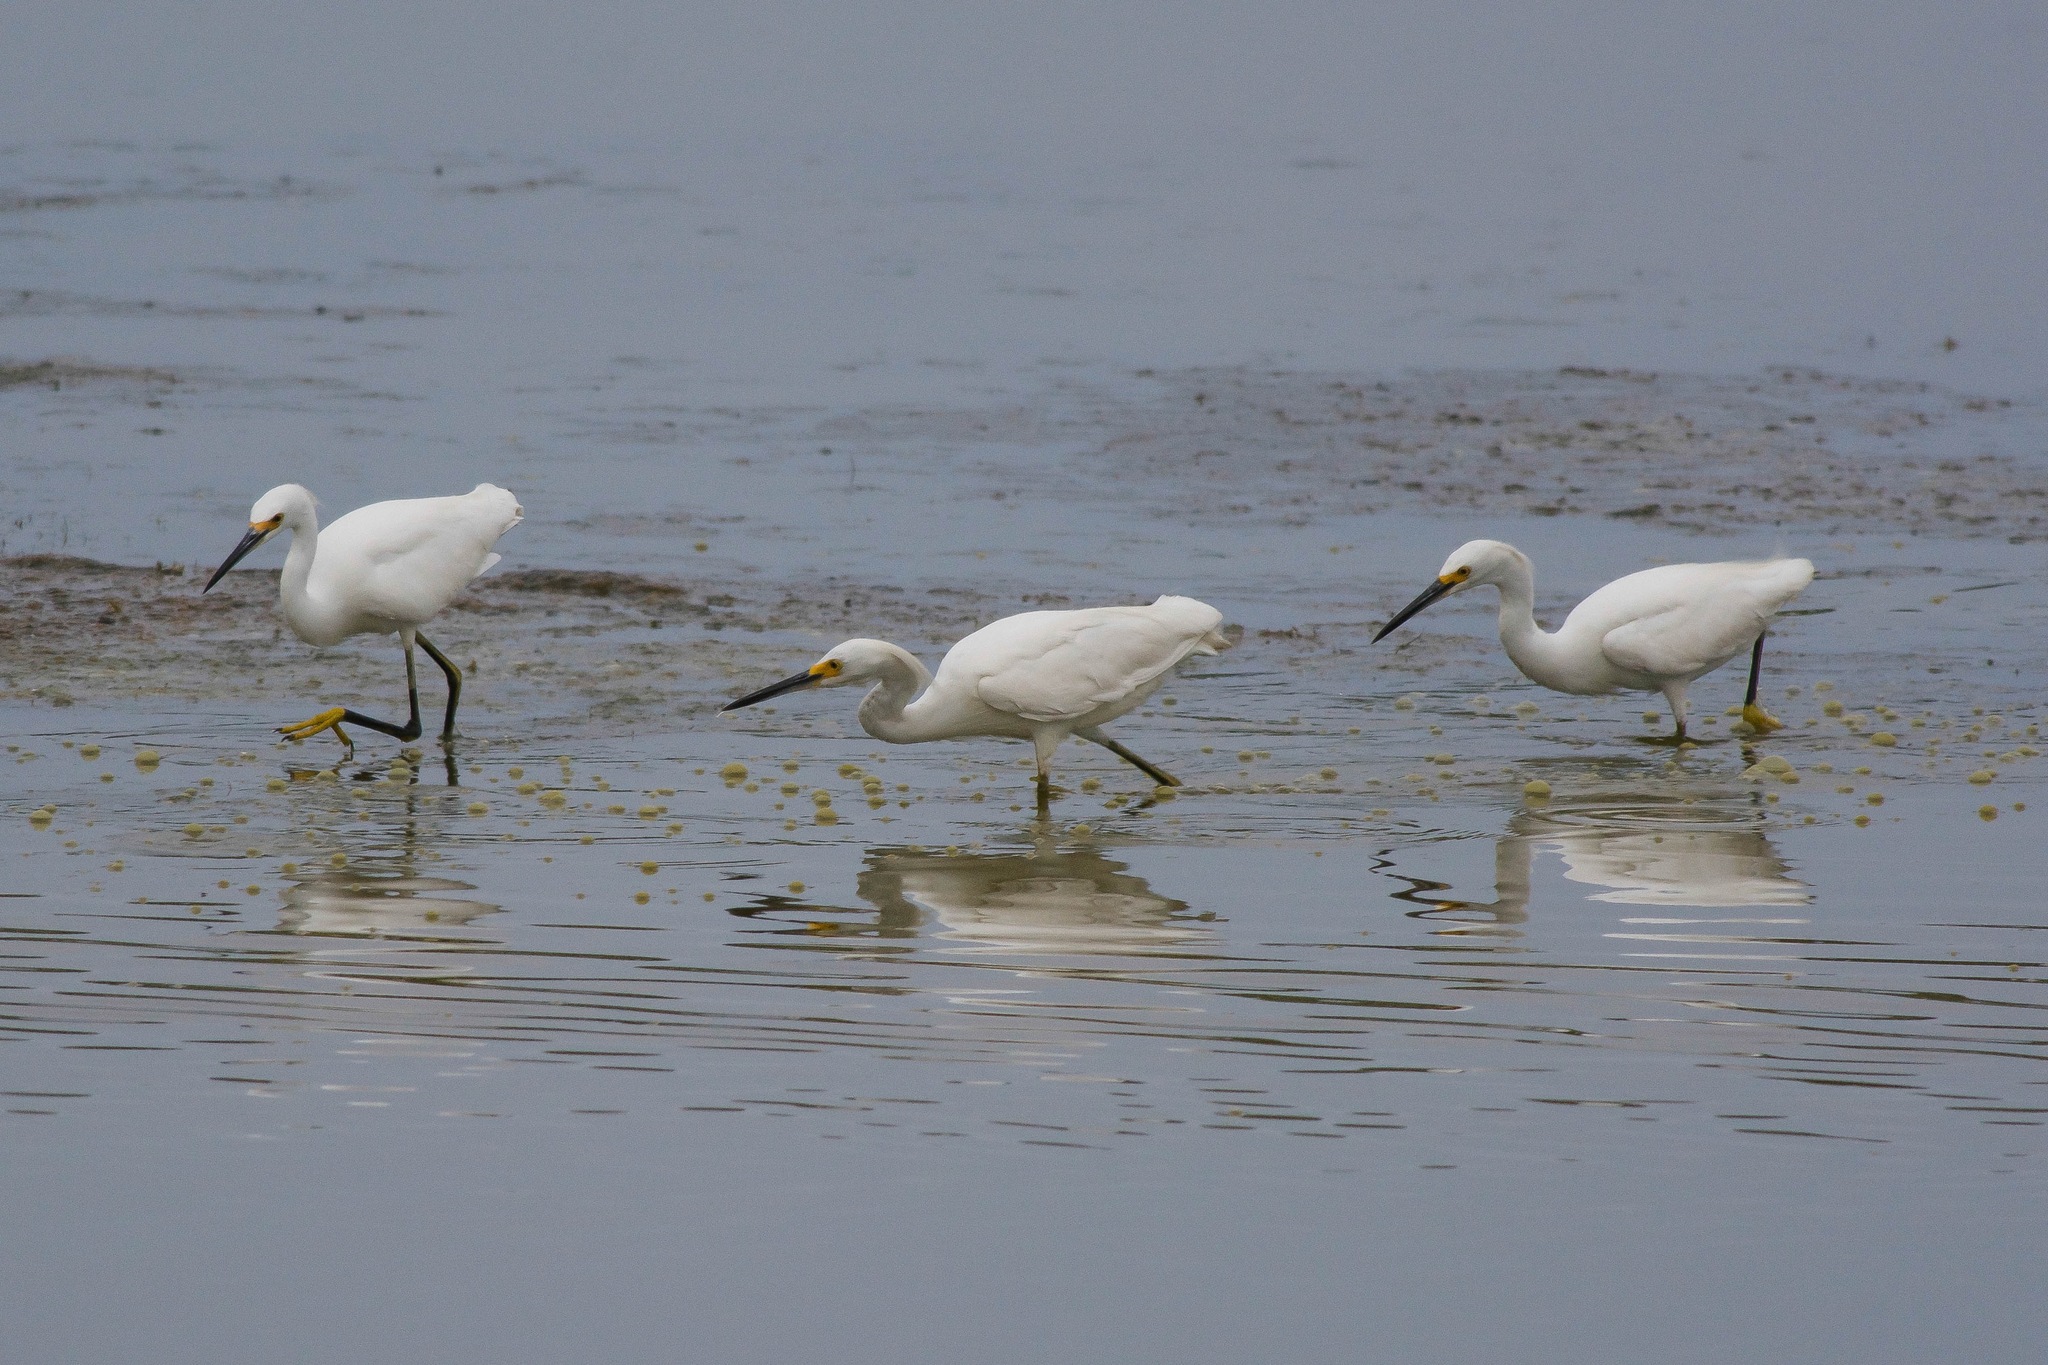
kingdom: Animalia
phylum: Chordata
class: Aves
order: Pelecaniformes
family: Ardeidae
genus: Egretta
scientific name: Egretta thula
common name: Snowy egret
